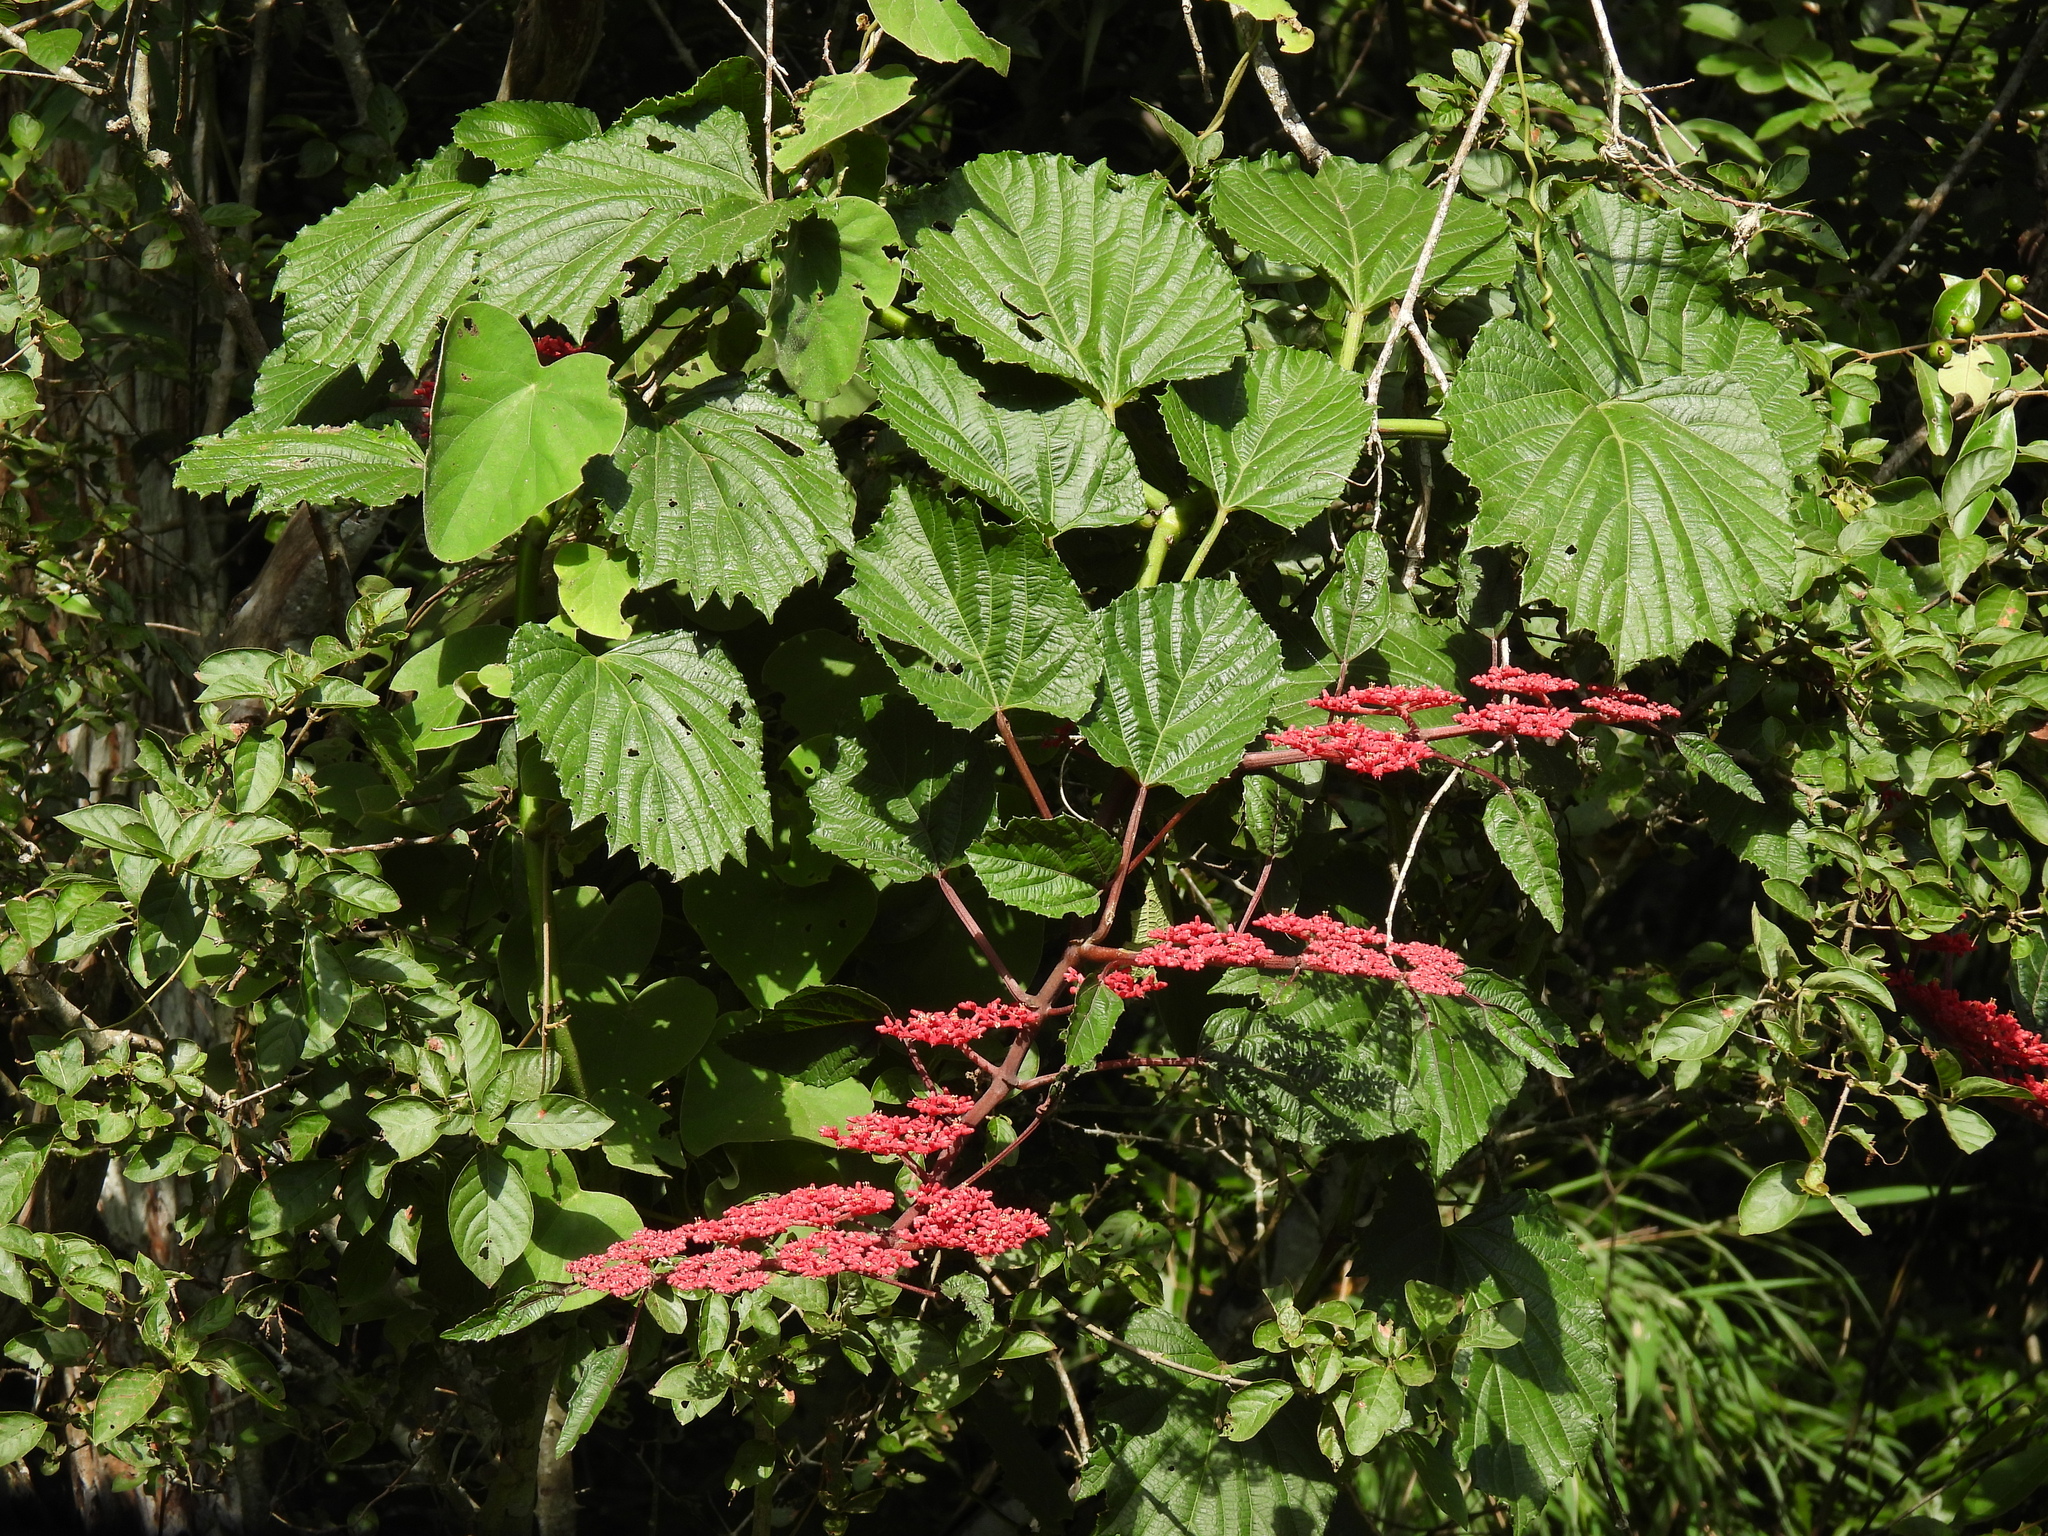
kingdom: Plantae
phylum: Tracheophyta
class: Magnoliopsida
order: Vitales
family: Vitaceae
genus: Cissus
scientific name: Cissus biformifolia
